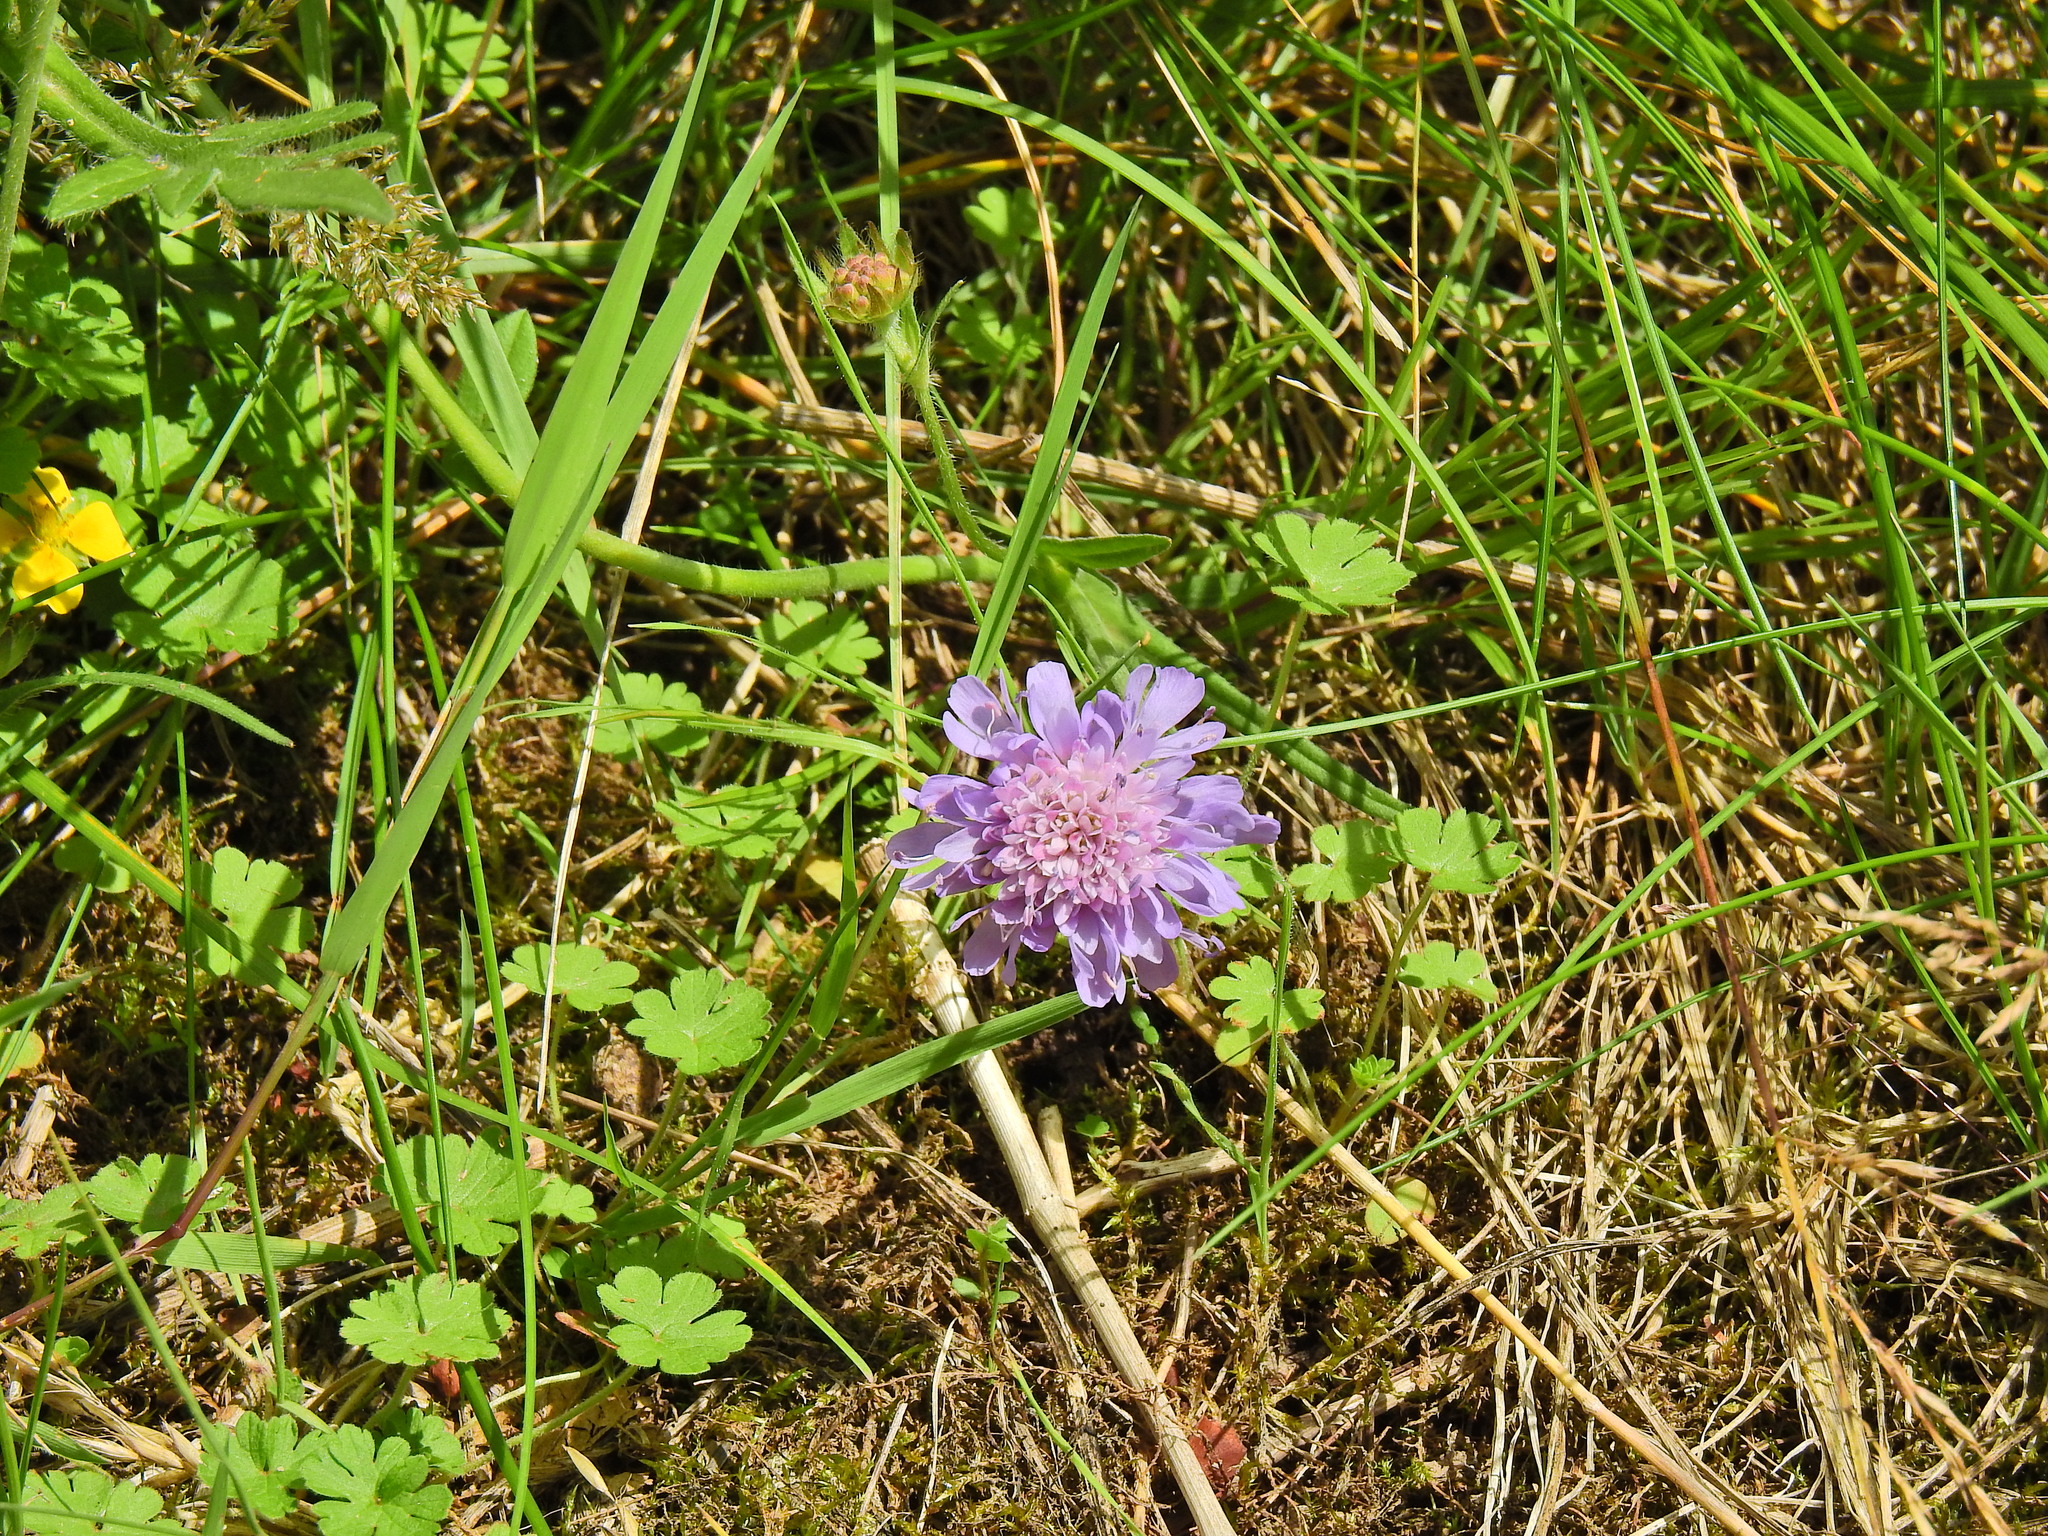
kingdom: Plantae
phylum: Tracheophyta
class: Magnoliopsida
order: Dipsacales
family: Caprifoliaceae
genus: Knautia
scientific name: Knautia arvensis
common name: Field scabiosa
